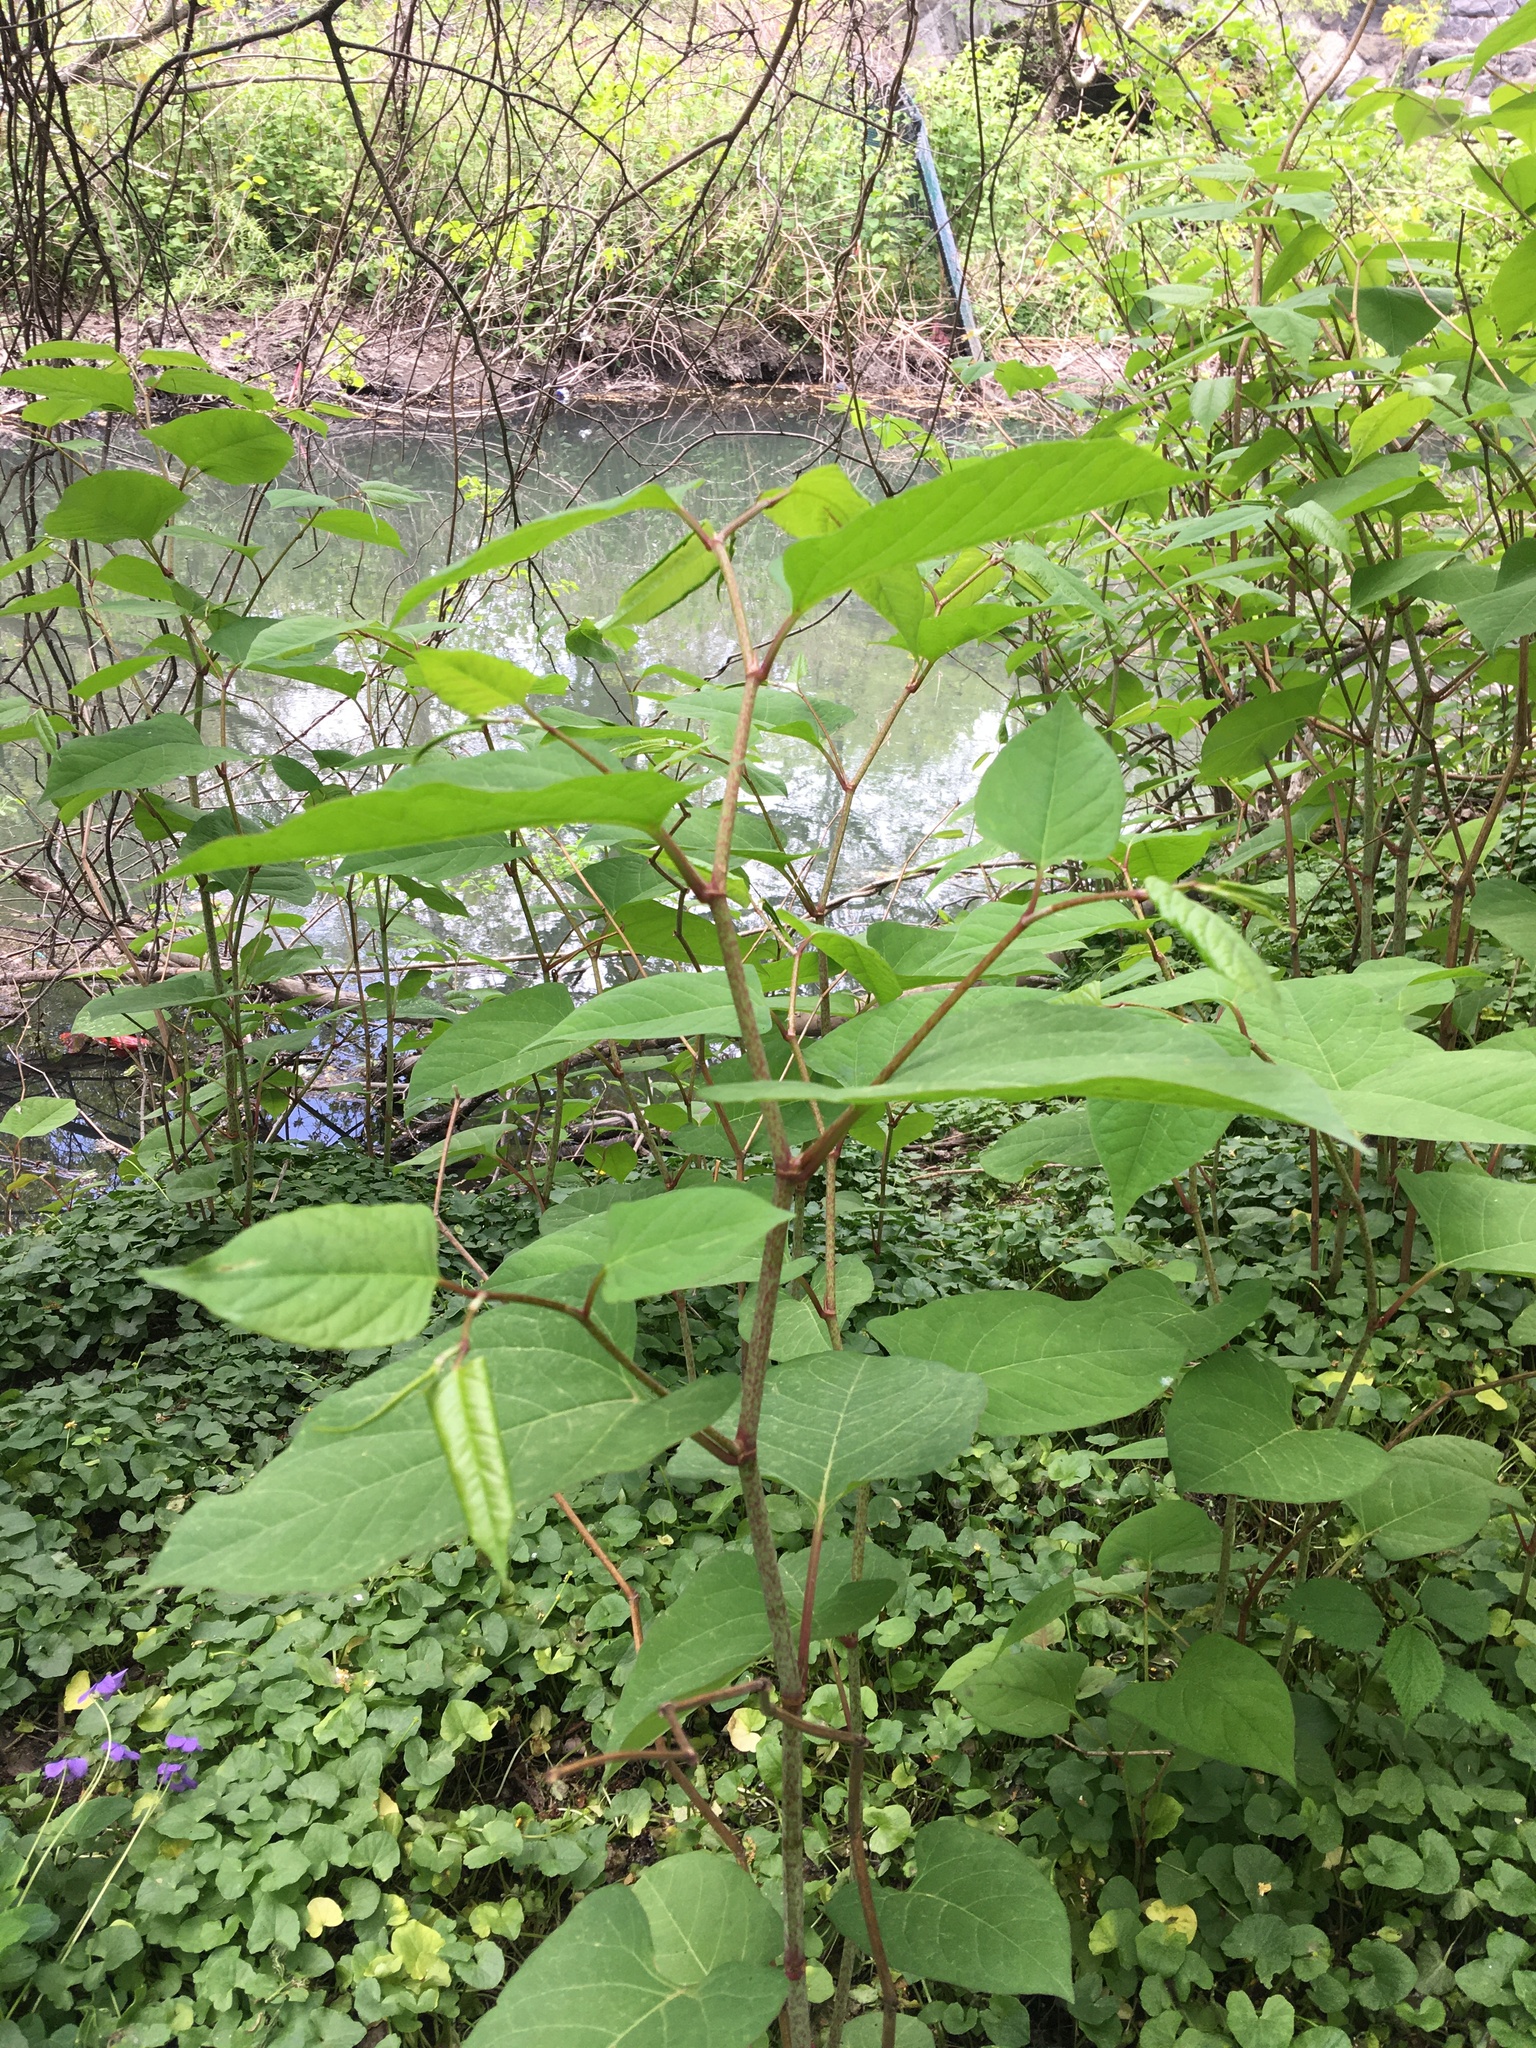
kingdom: Plantae
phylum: Tracheophyta
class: Magnoliopsida
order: Caryophyllales
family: Polygonaceae
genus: Reynoutria
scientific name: Reynoutria japonica
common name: Japanese knotweed
